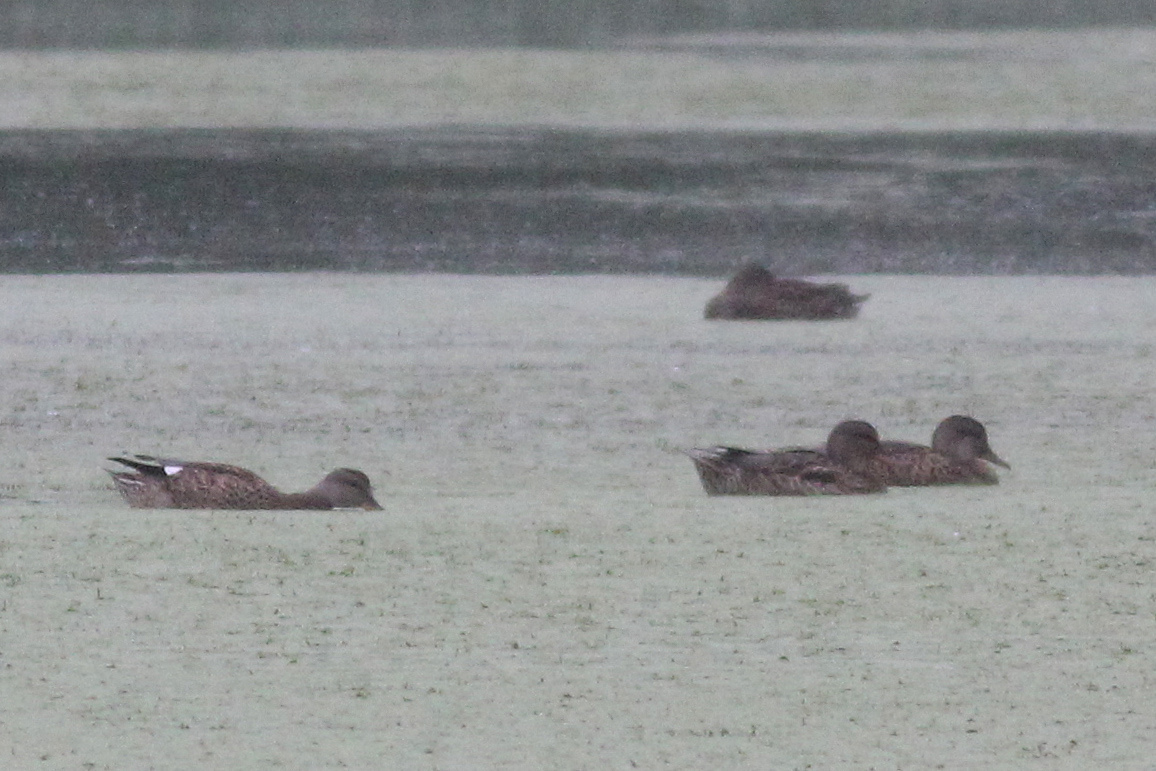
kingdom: Animalia
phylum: Chordata
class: Aves
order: Anseriformes
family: Anatidae
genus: Mareca
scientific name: Mareca strepera
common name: Gadwall
